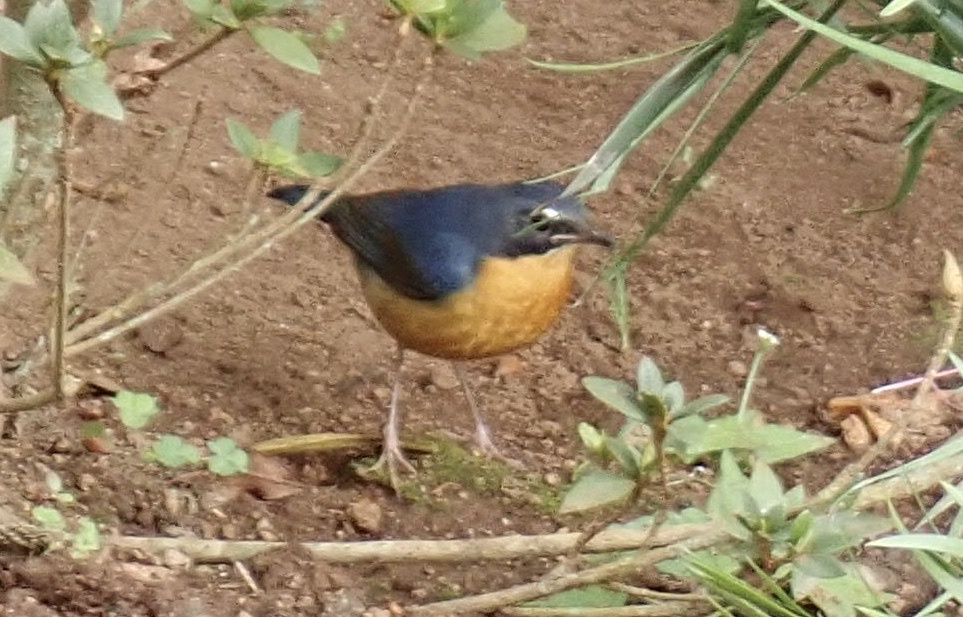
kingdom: Animalia
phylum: Chordata
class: Aves
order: Passeriformes
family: Muscicapidae
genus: Luscinia
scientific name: Luscinia brunnea
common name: Indian blue robin
